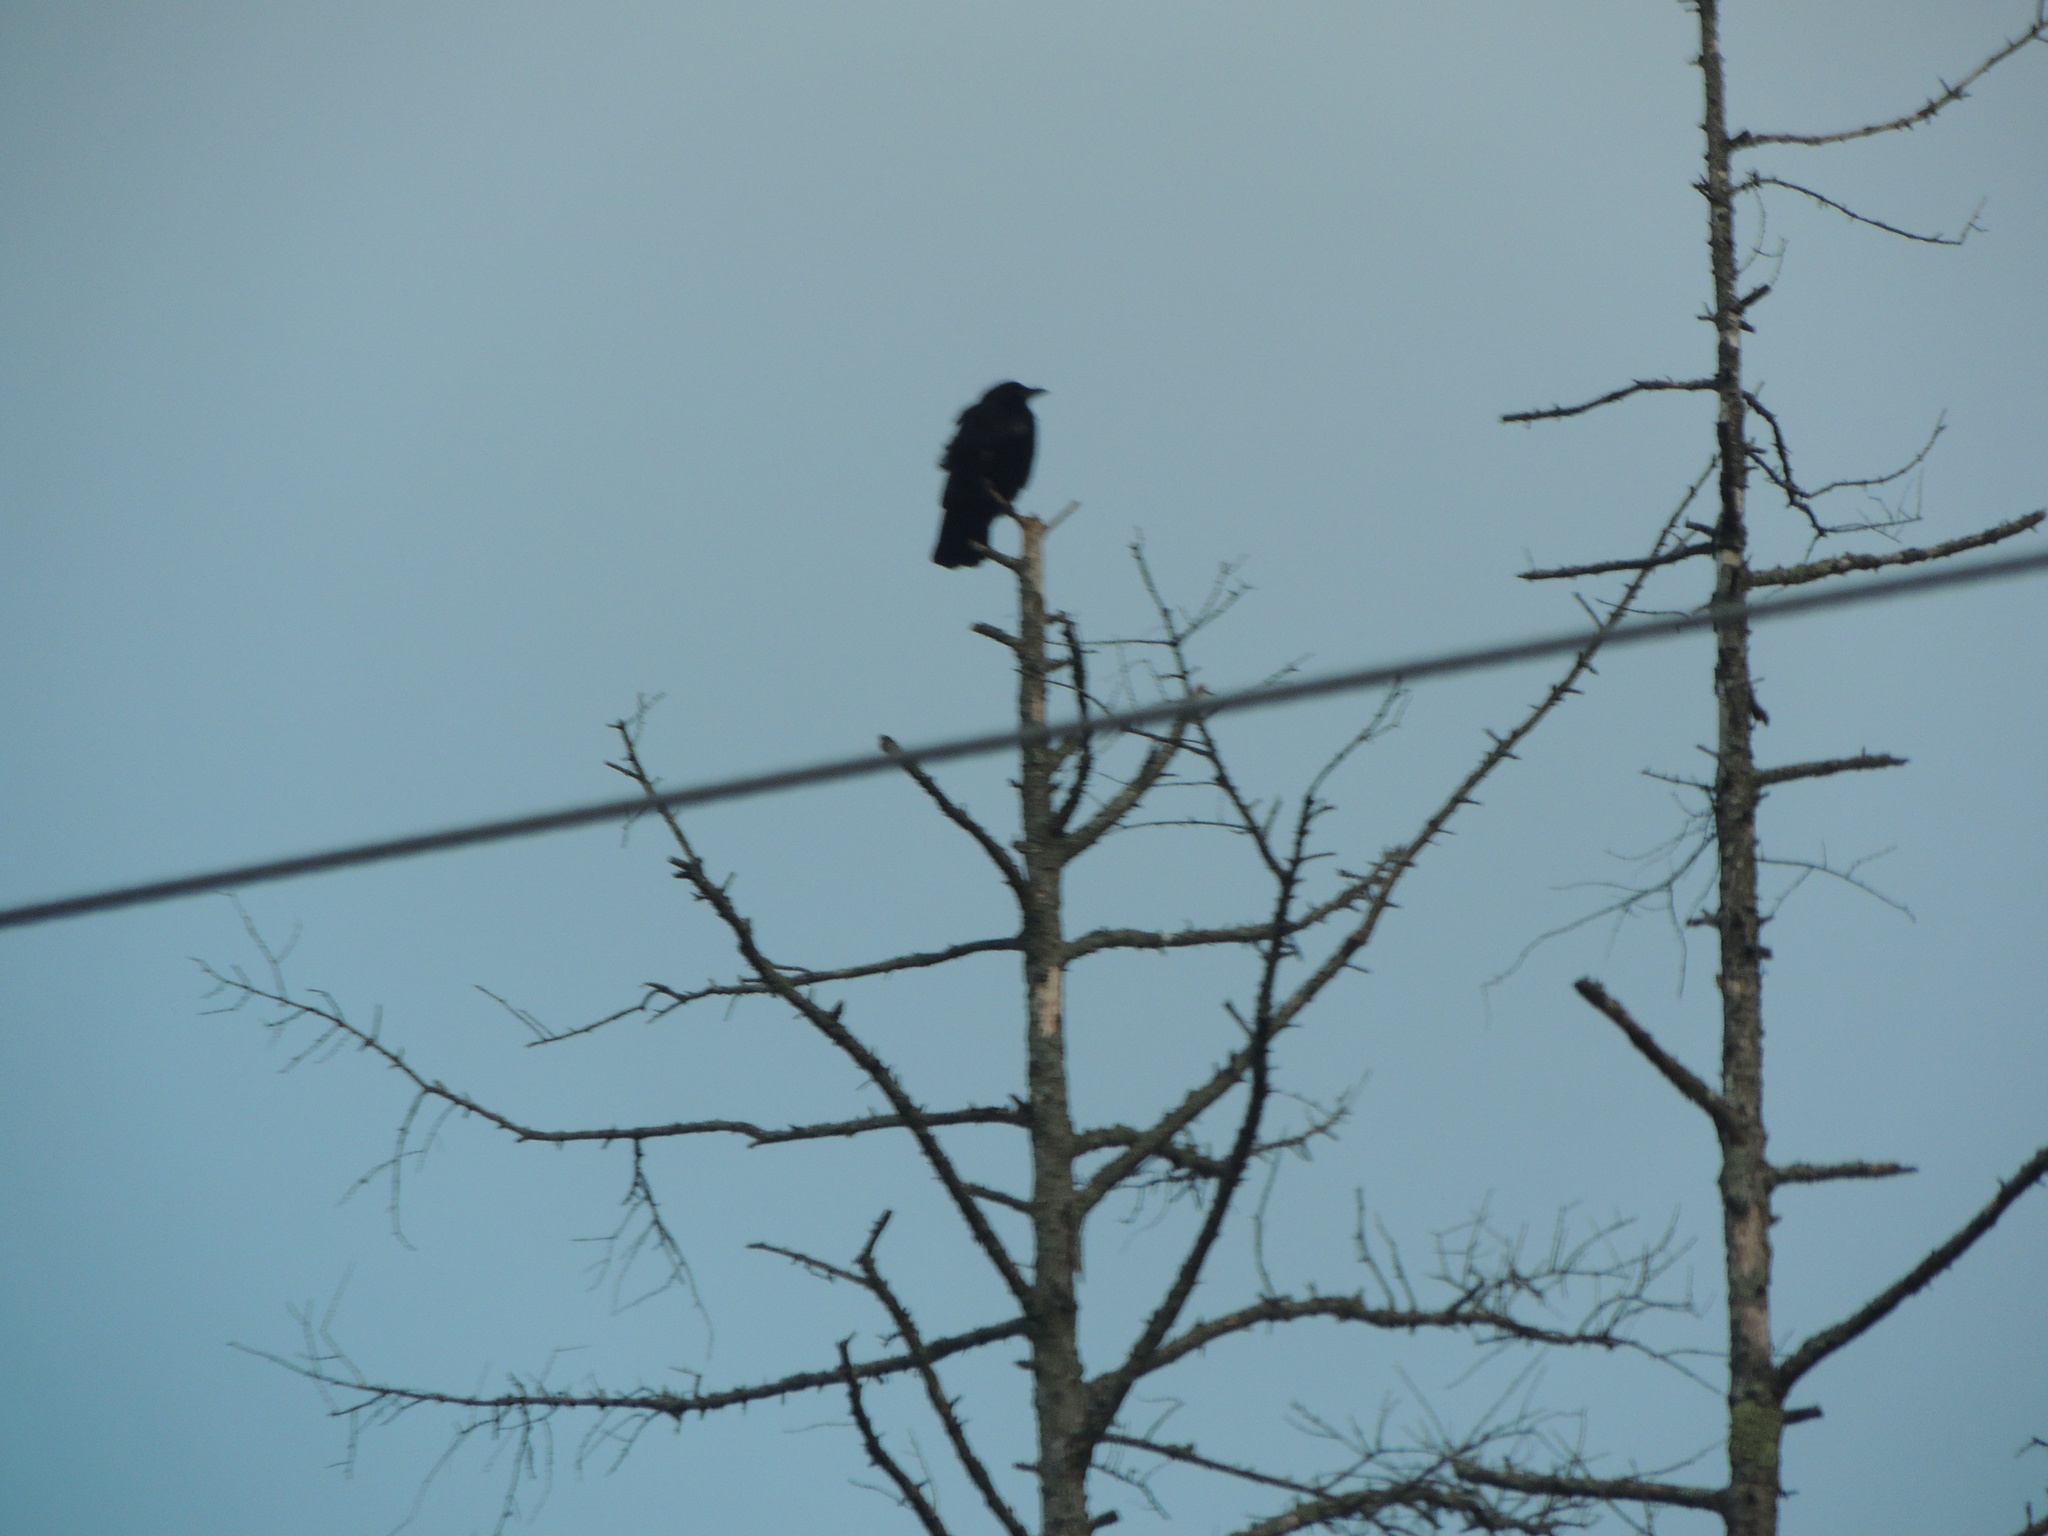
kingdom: Animalia
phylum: Chordata
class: Aves
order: Passeriformes
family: Corvidae
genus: Corvus
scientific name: Corvus brachyrhynchos
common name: American crow
